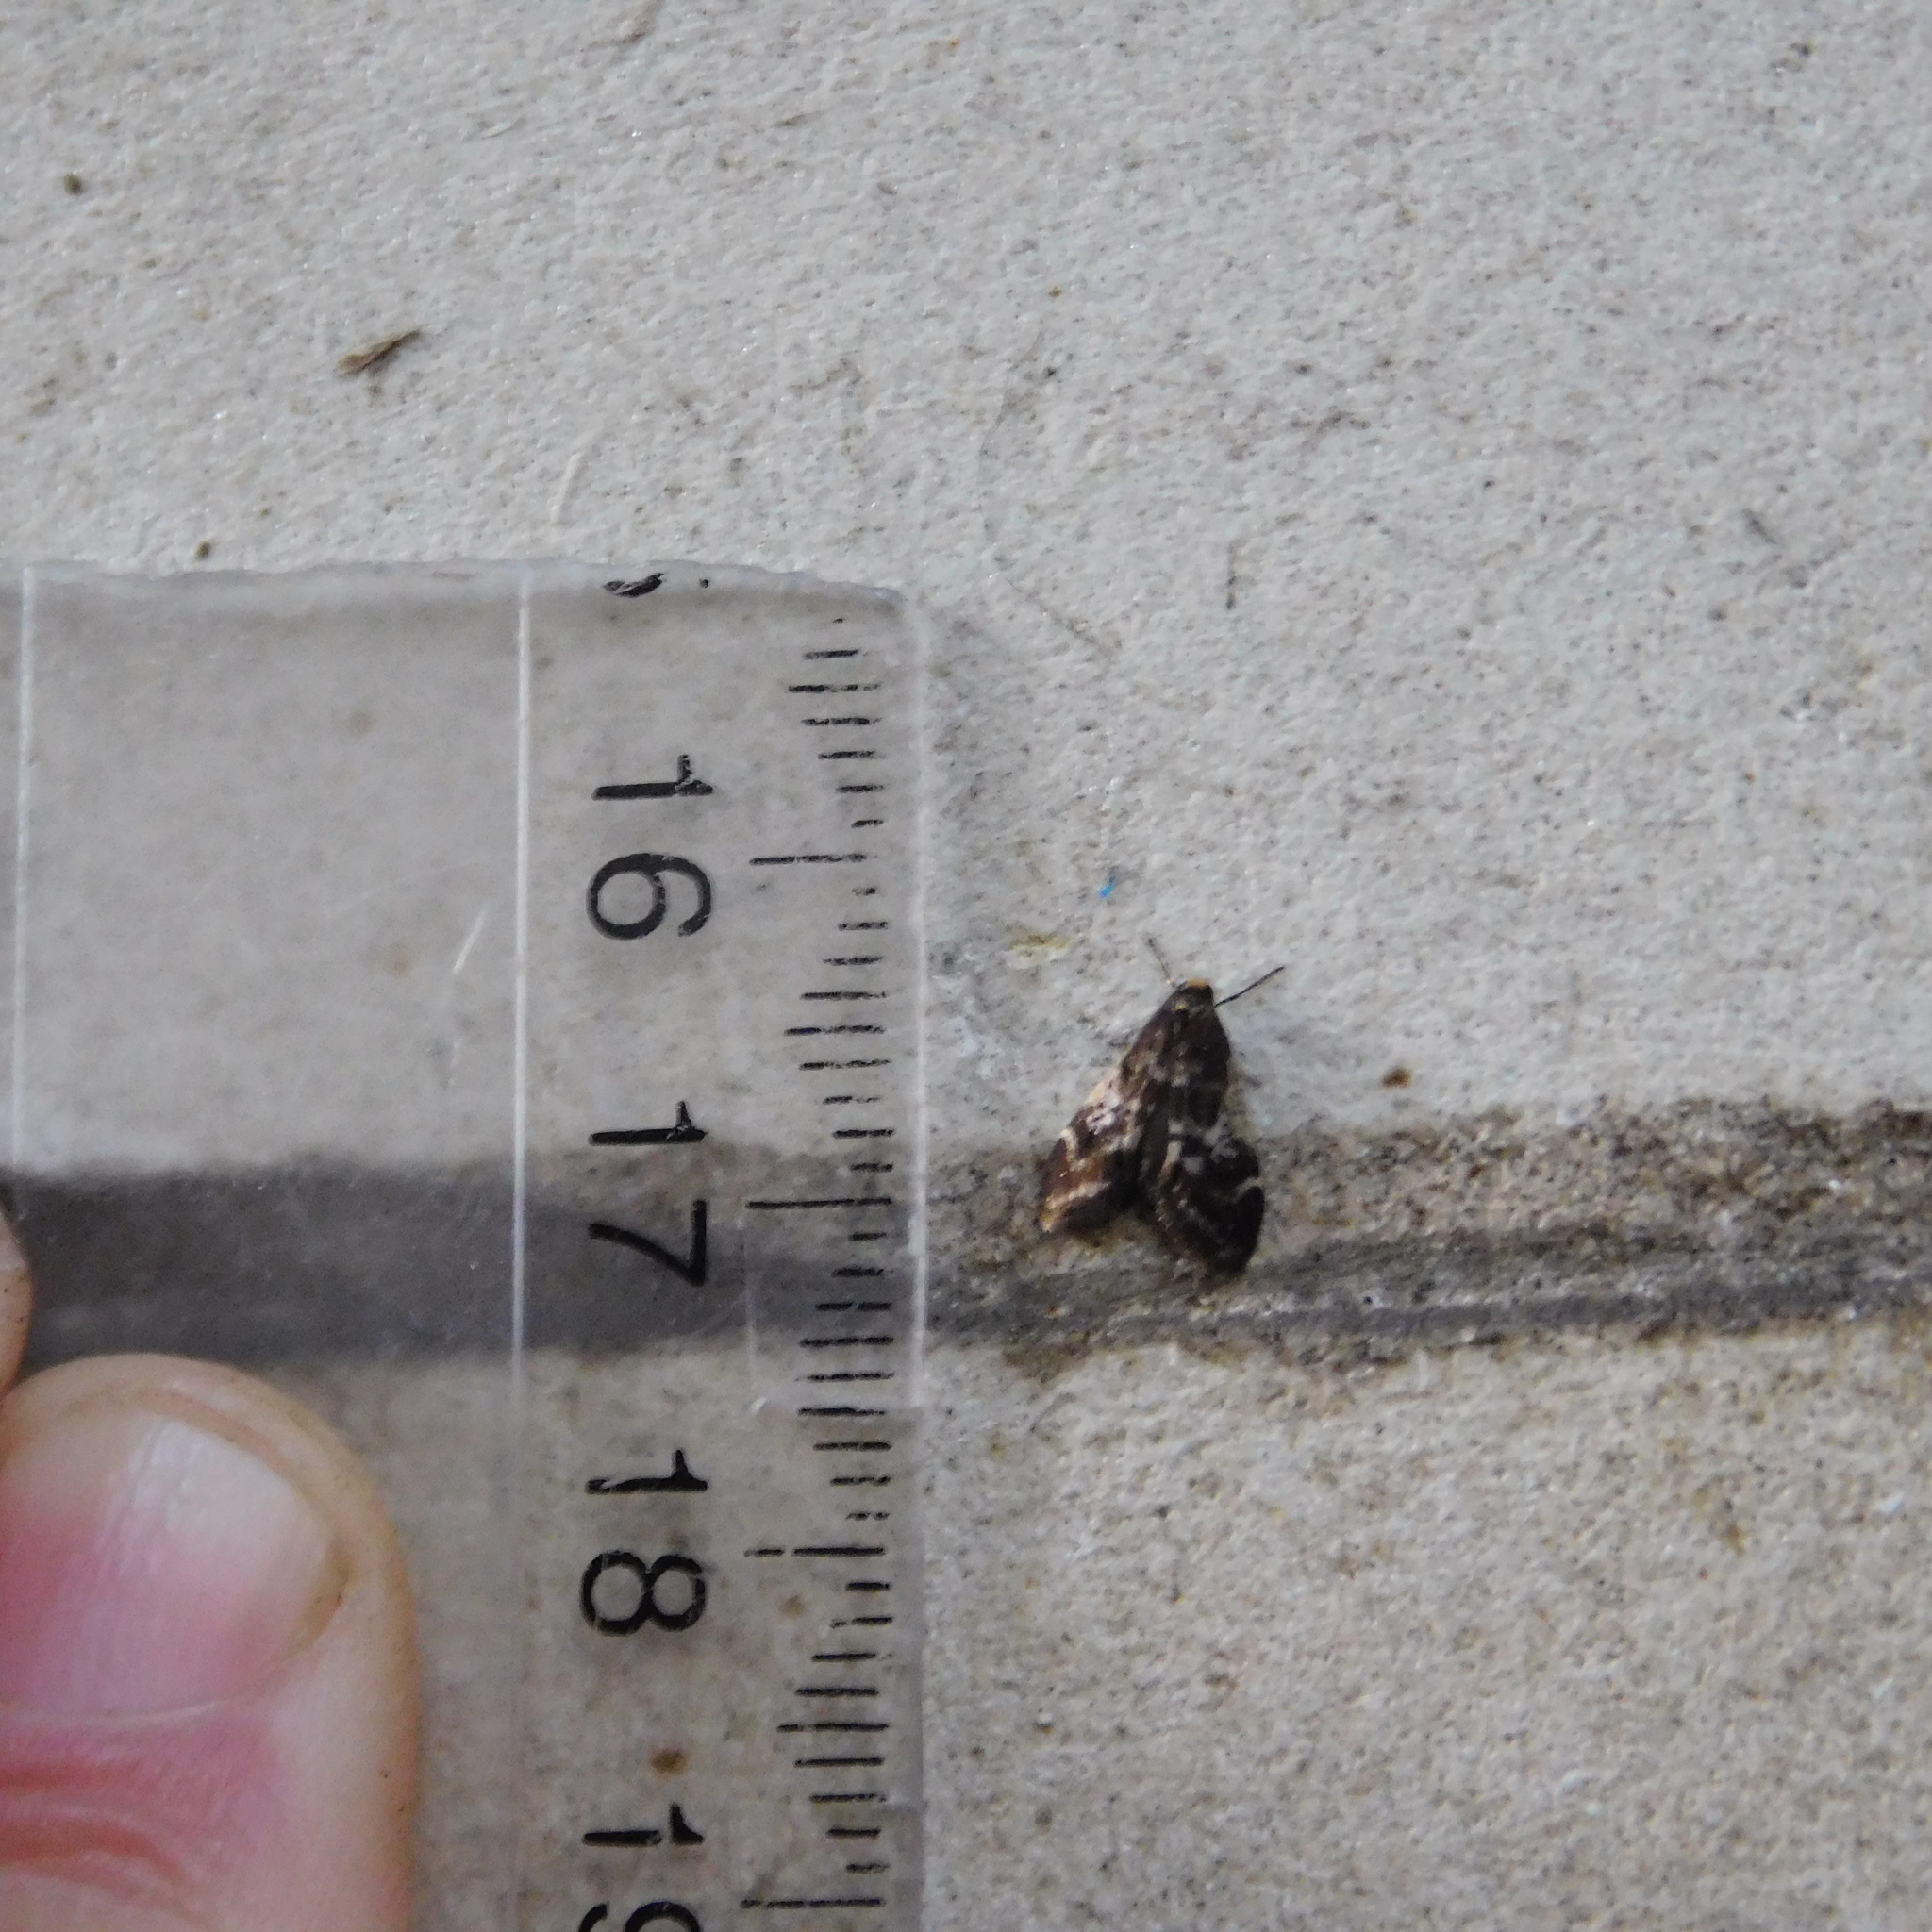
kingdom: Animalia
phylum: Arthropoda
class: Insecta
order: Lepidoptera
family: Psychidae
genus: Lepidoscia
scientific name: Lepidoscia lainodes
